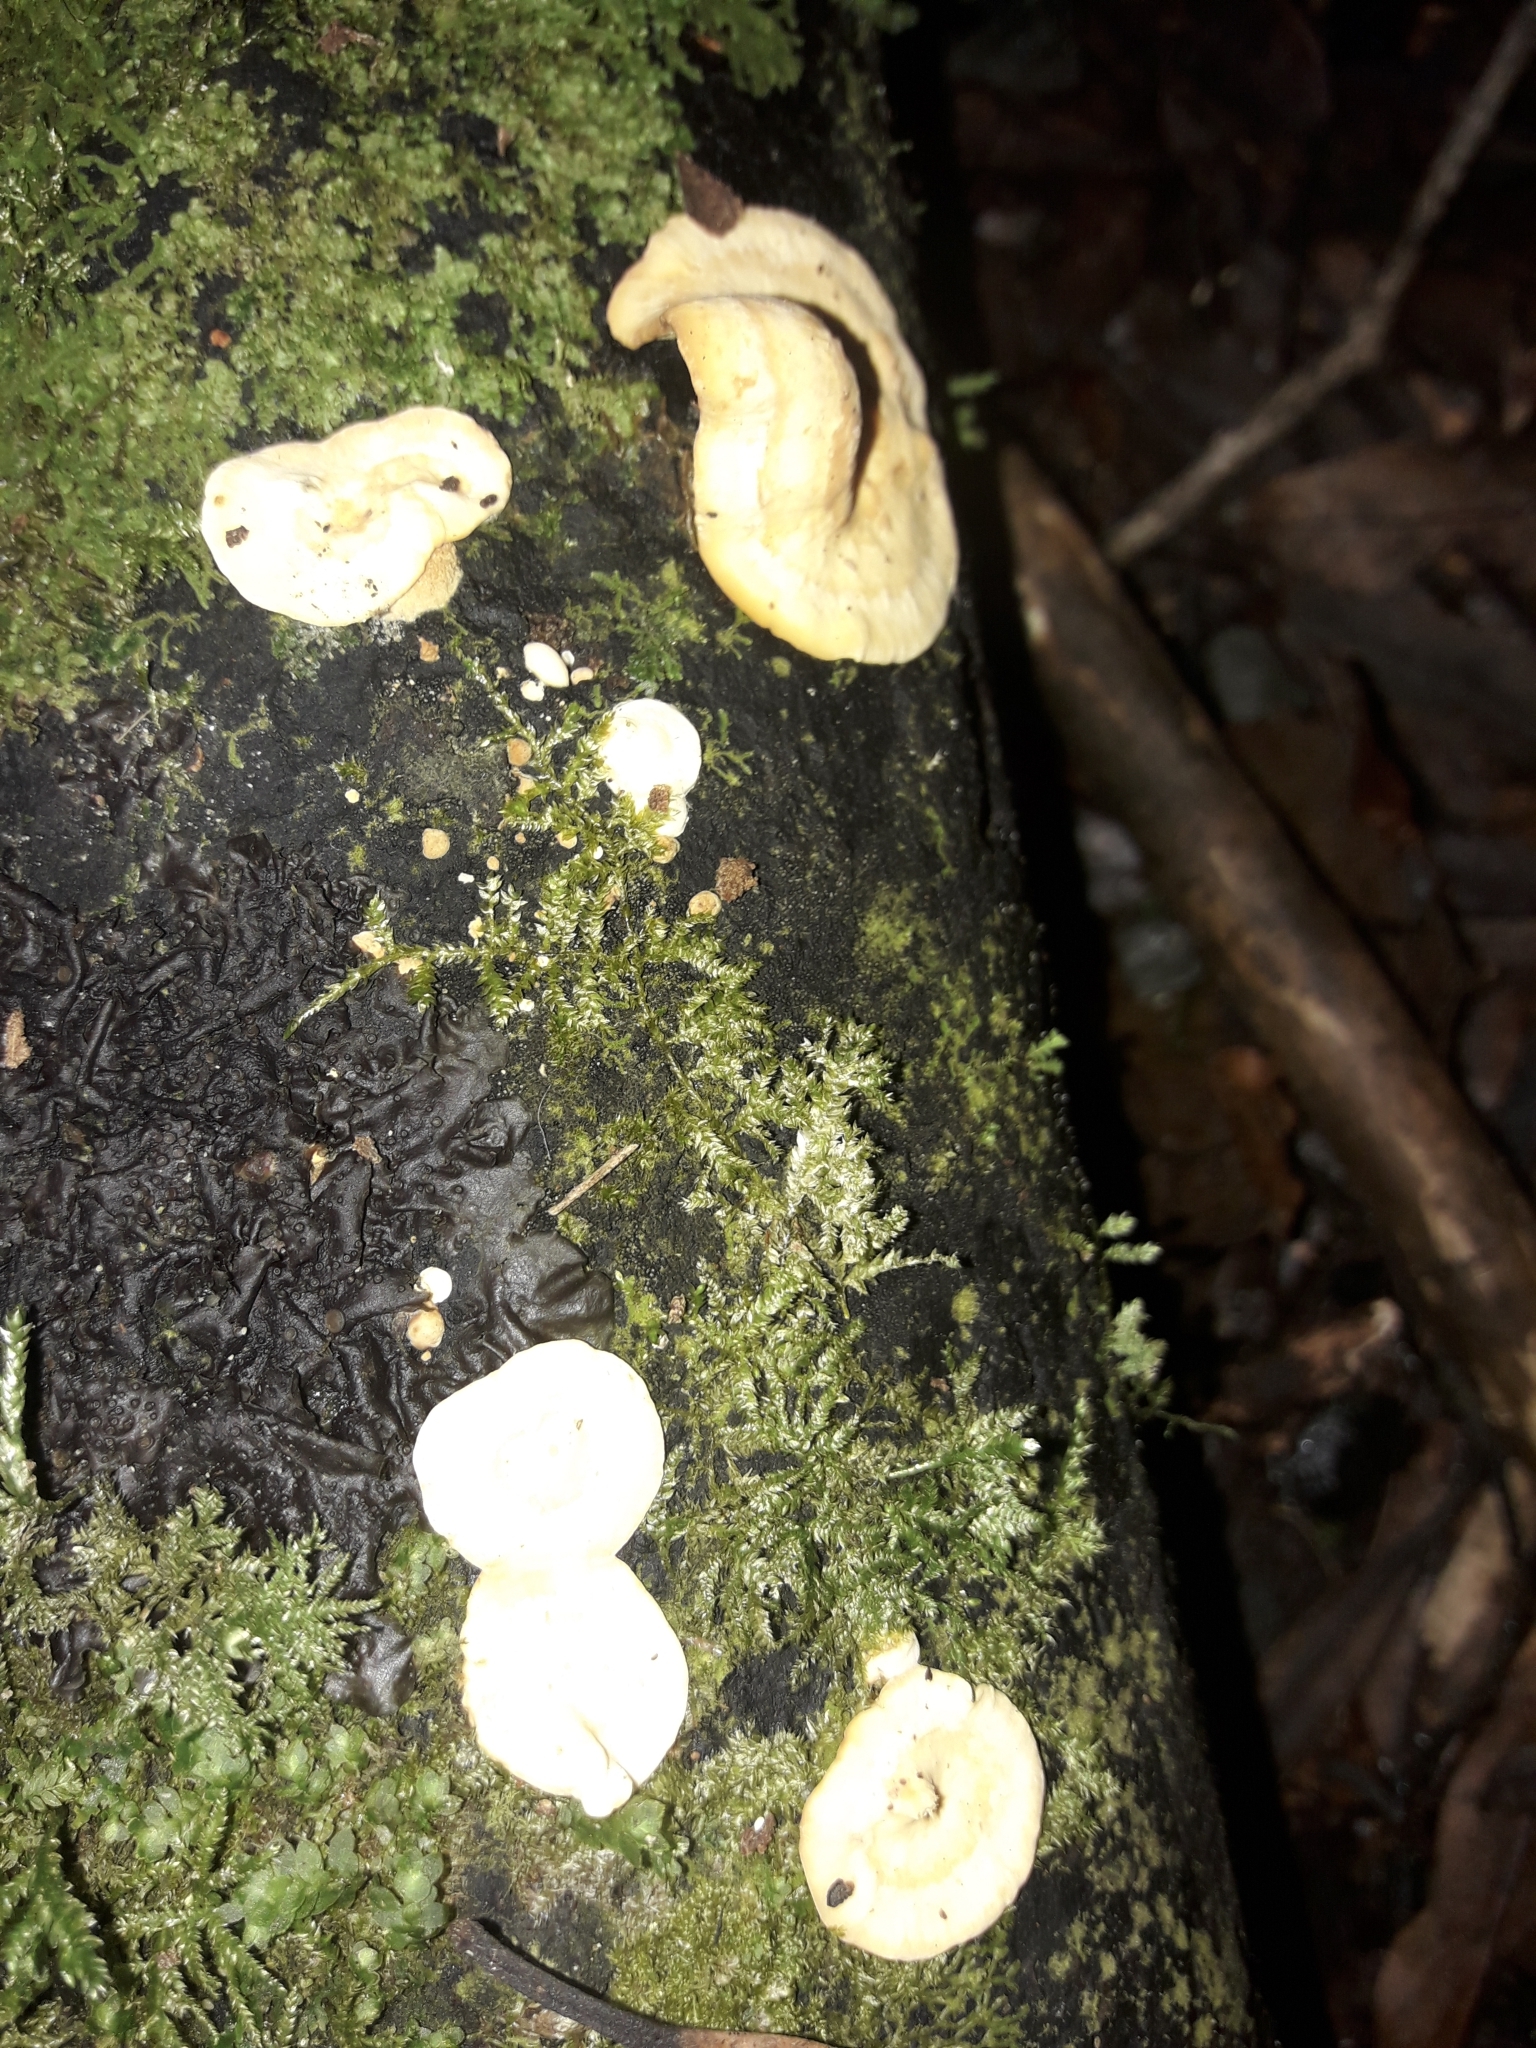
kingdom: Fungi
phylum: Basidiomycota
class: Agaricomycetes
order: Polyporales
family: Steccherinaceae
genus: Austeria
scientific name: Austeria citrea
